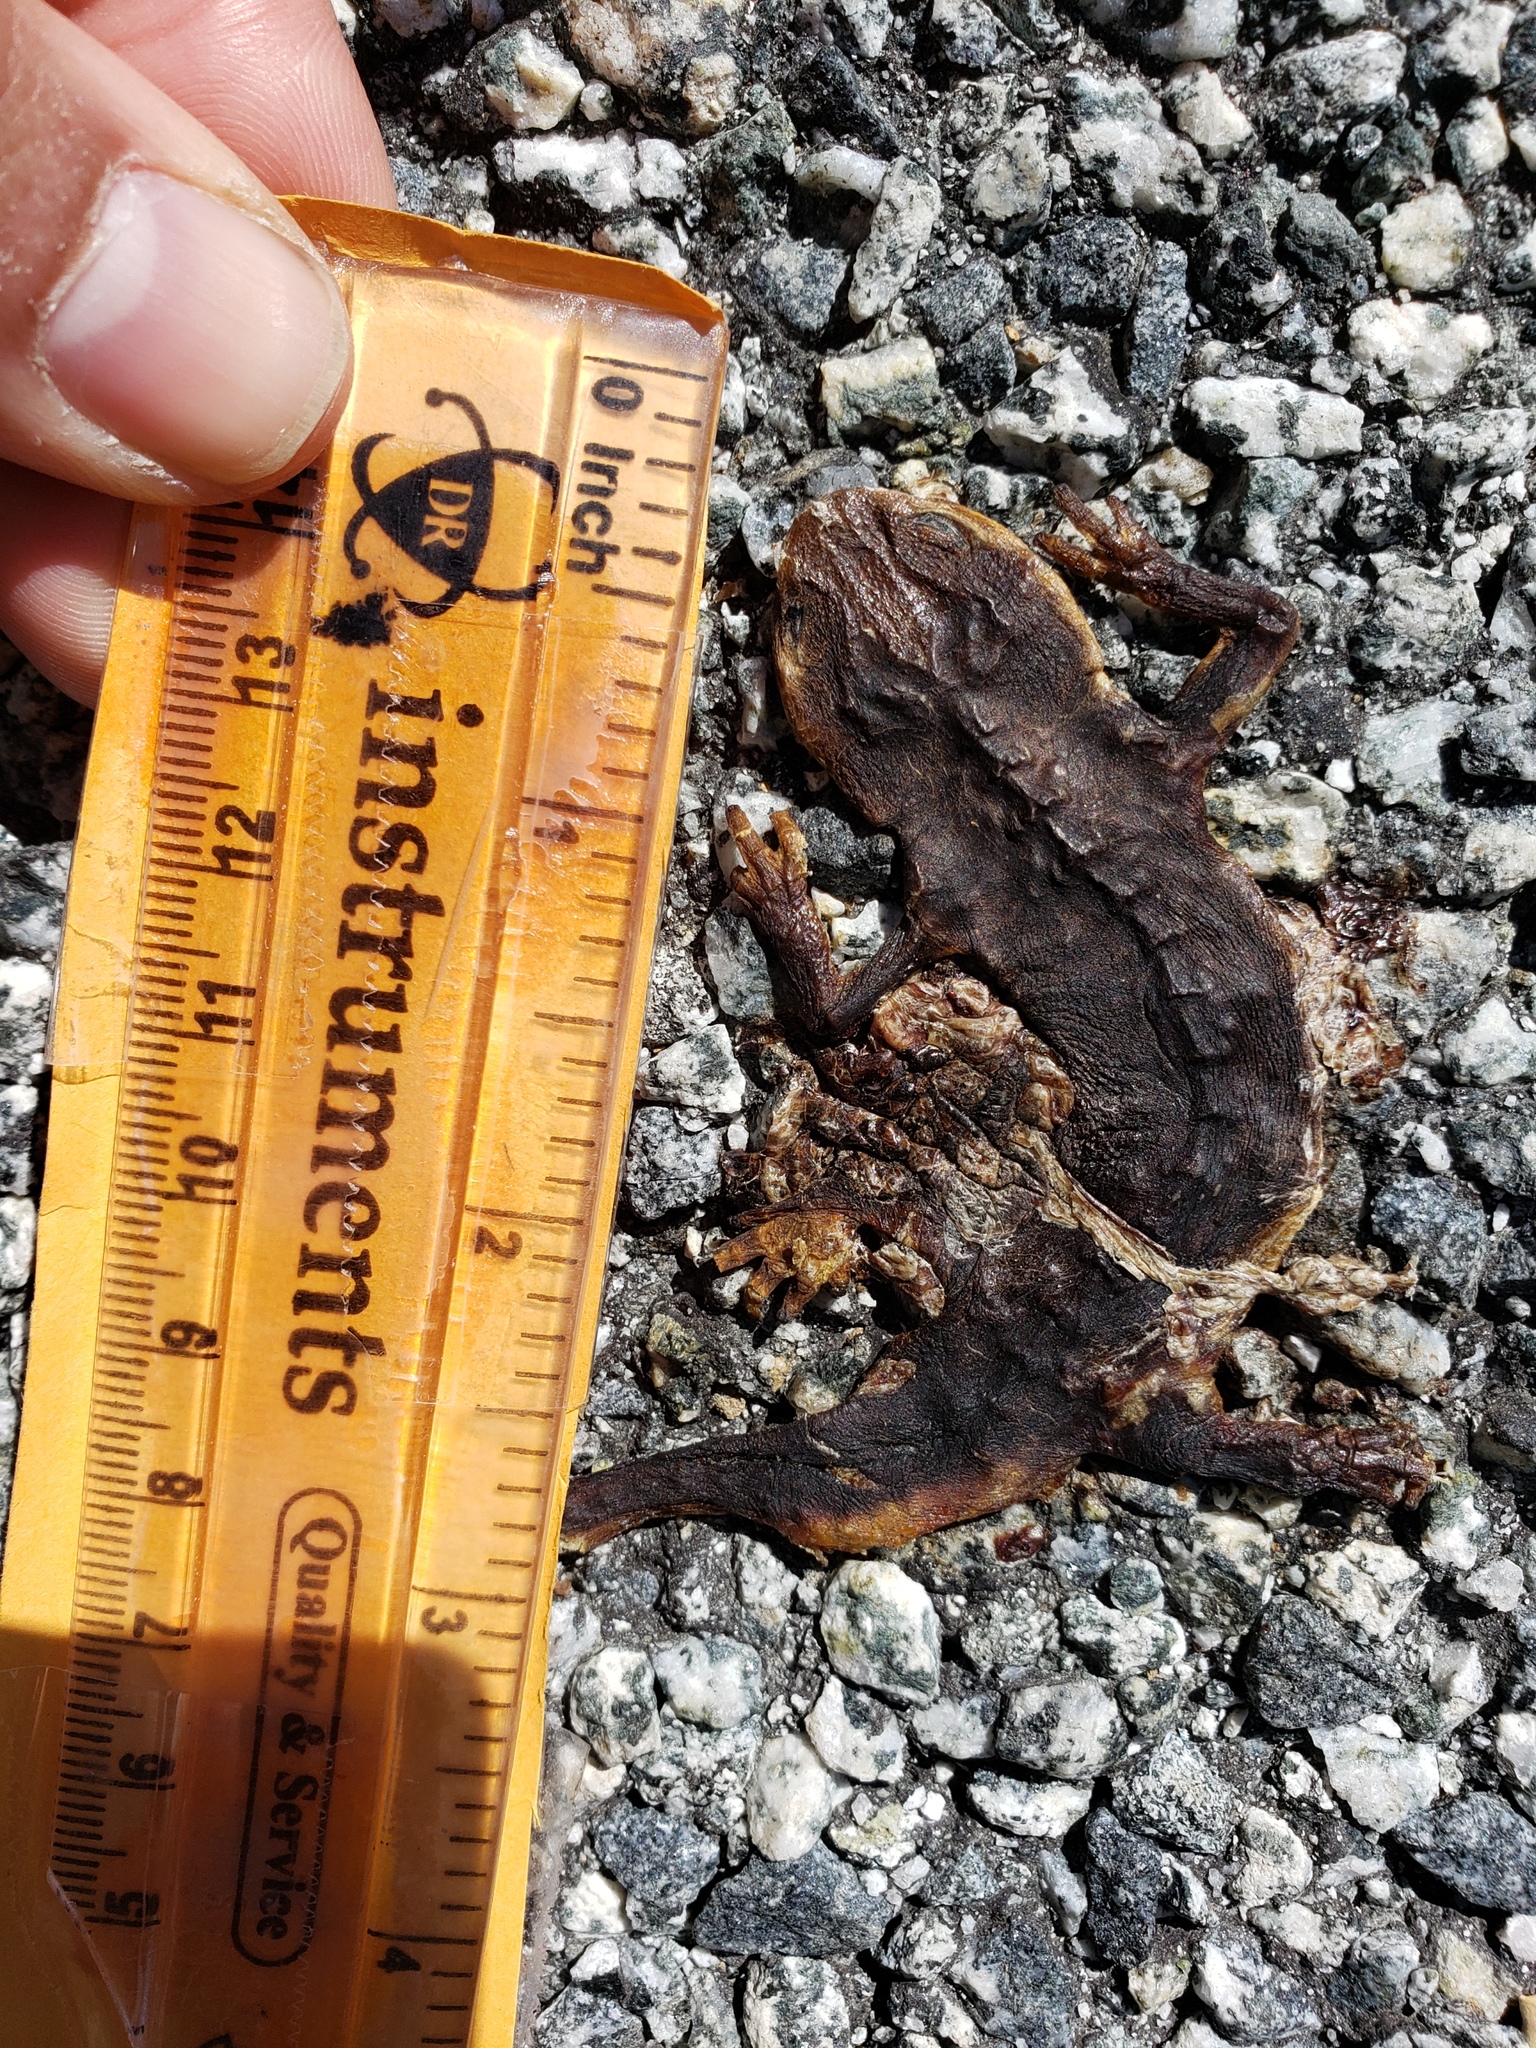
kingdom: Animalia
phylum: Chordata
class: Amphibia
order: Caudata
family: Salamandridae
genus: Taricha
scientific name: Taricha
